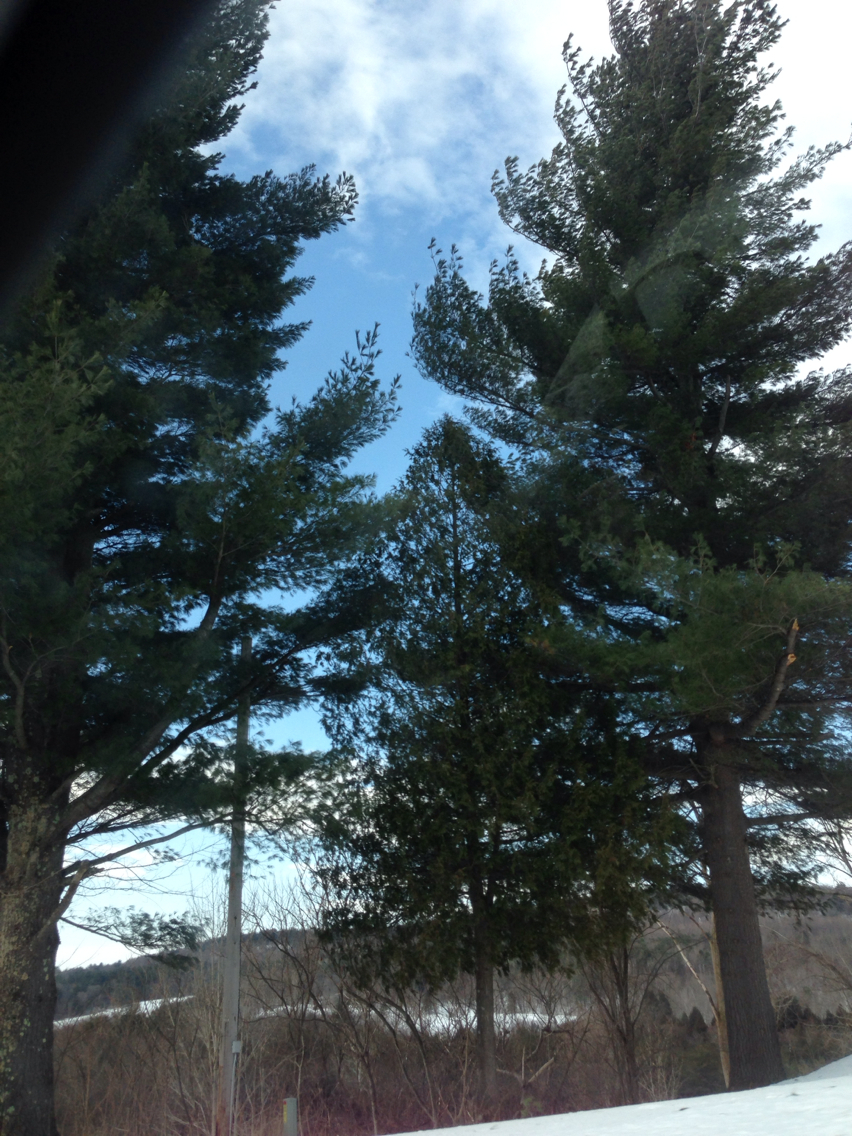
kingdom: Plantae
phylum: Tracheophyta
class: Pinopsida
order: Pinales
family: Pinaceae
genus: Pinus
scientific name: Pinus strobus
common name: Weymouth pine
